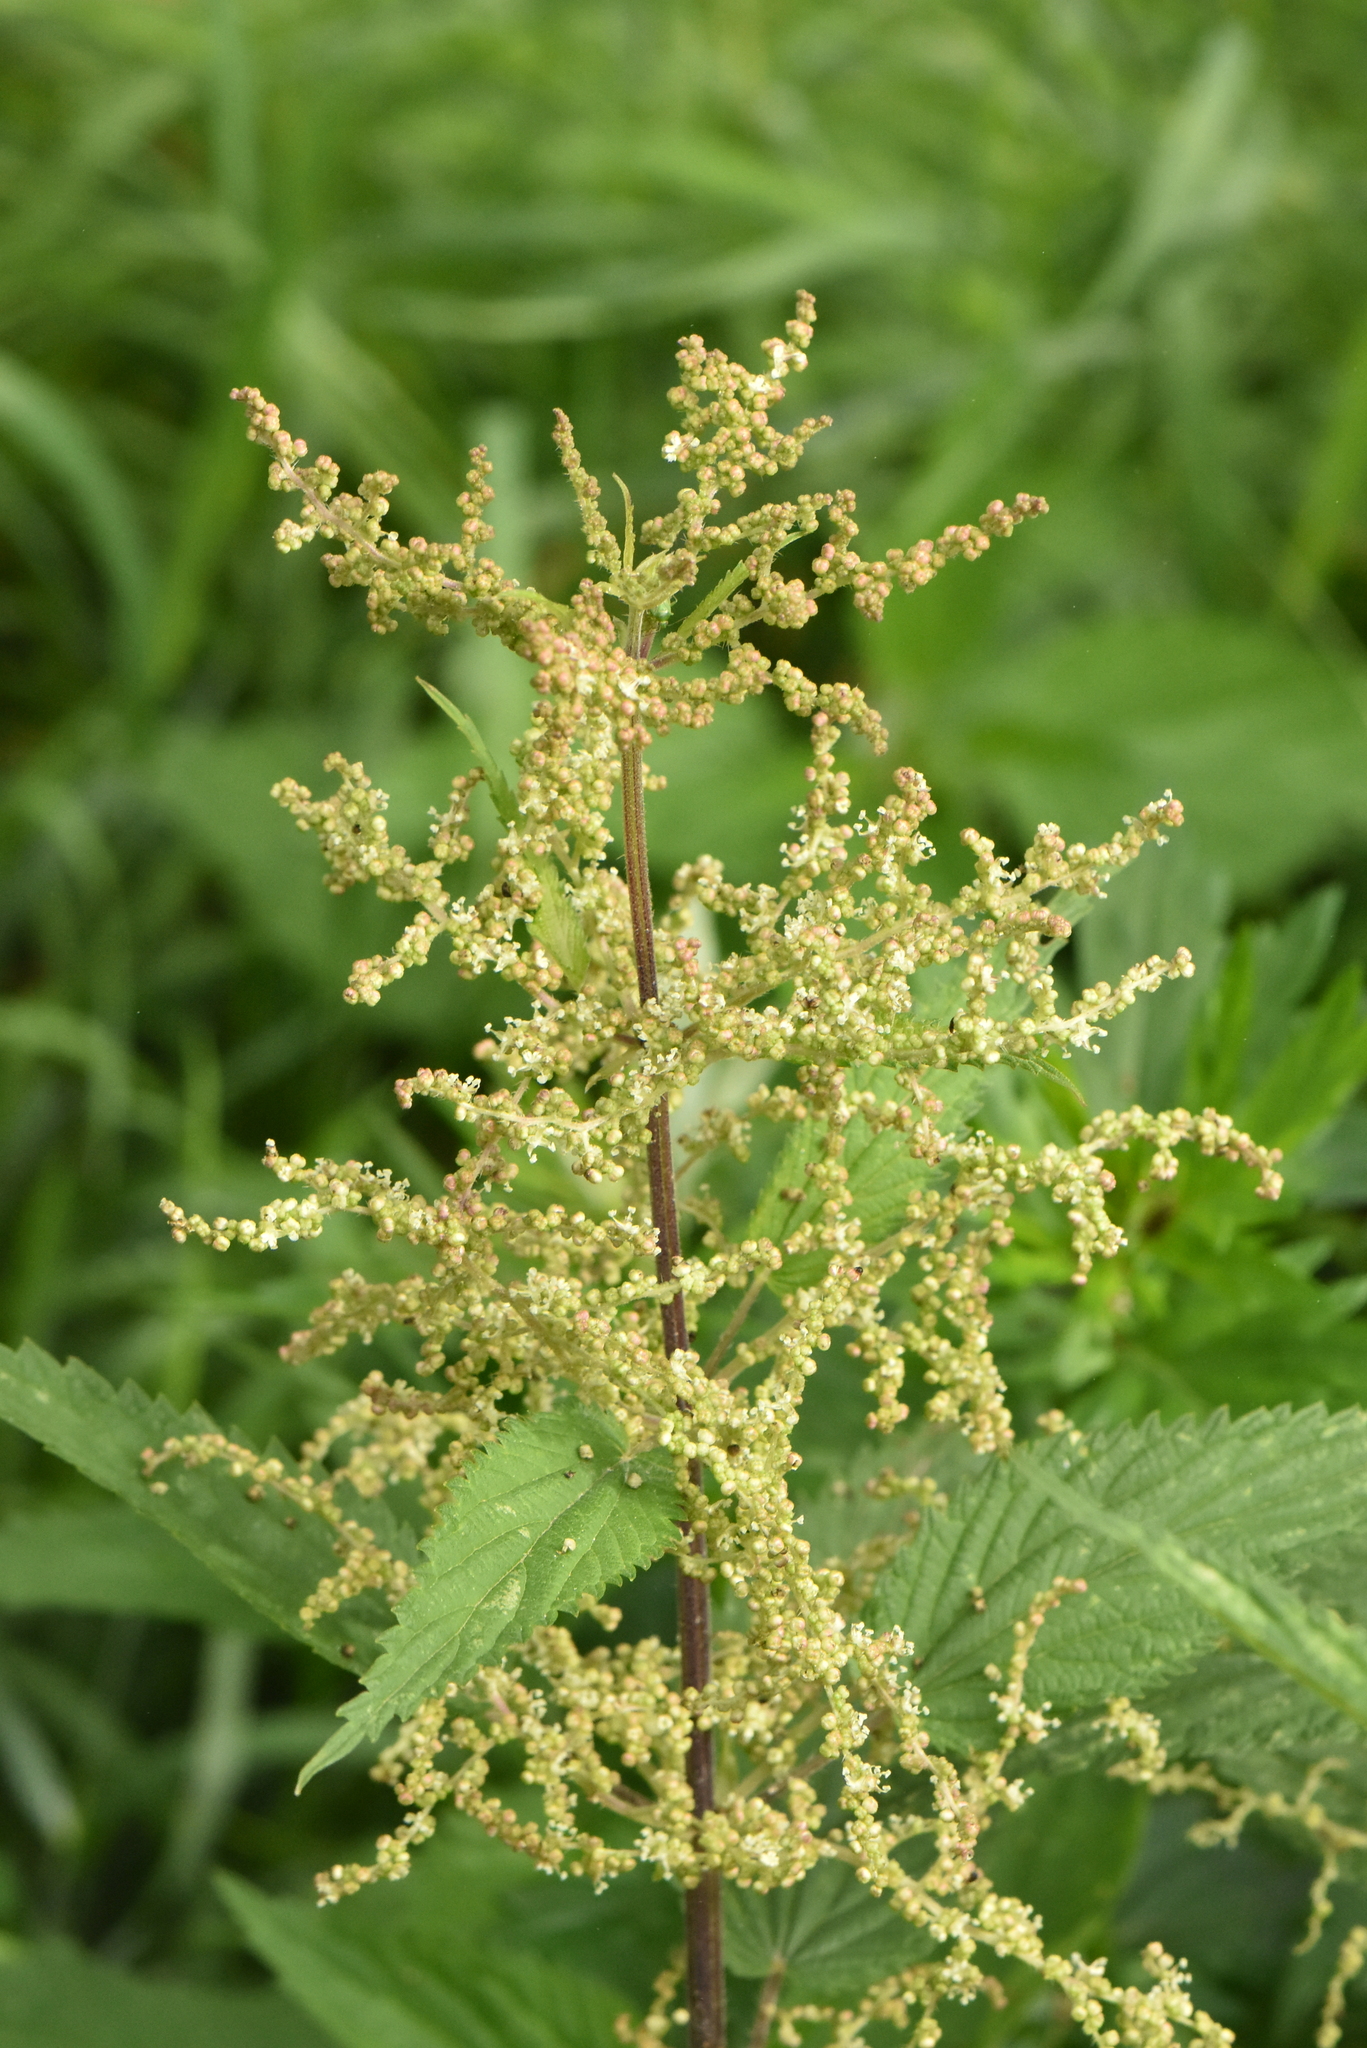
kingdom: Plantae
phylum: Tracheophyta
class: Magnoliopsida
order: Rosales
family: Urticaceae
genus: Urtica
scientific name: Urtica dioica
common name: Common nettle
